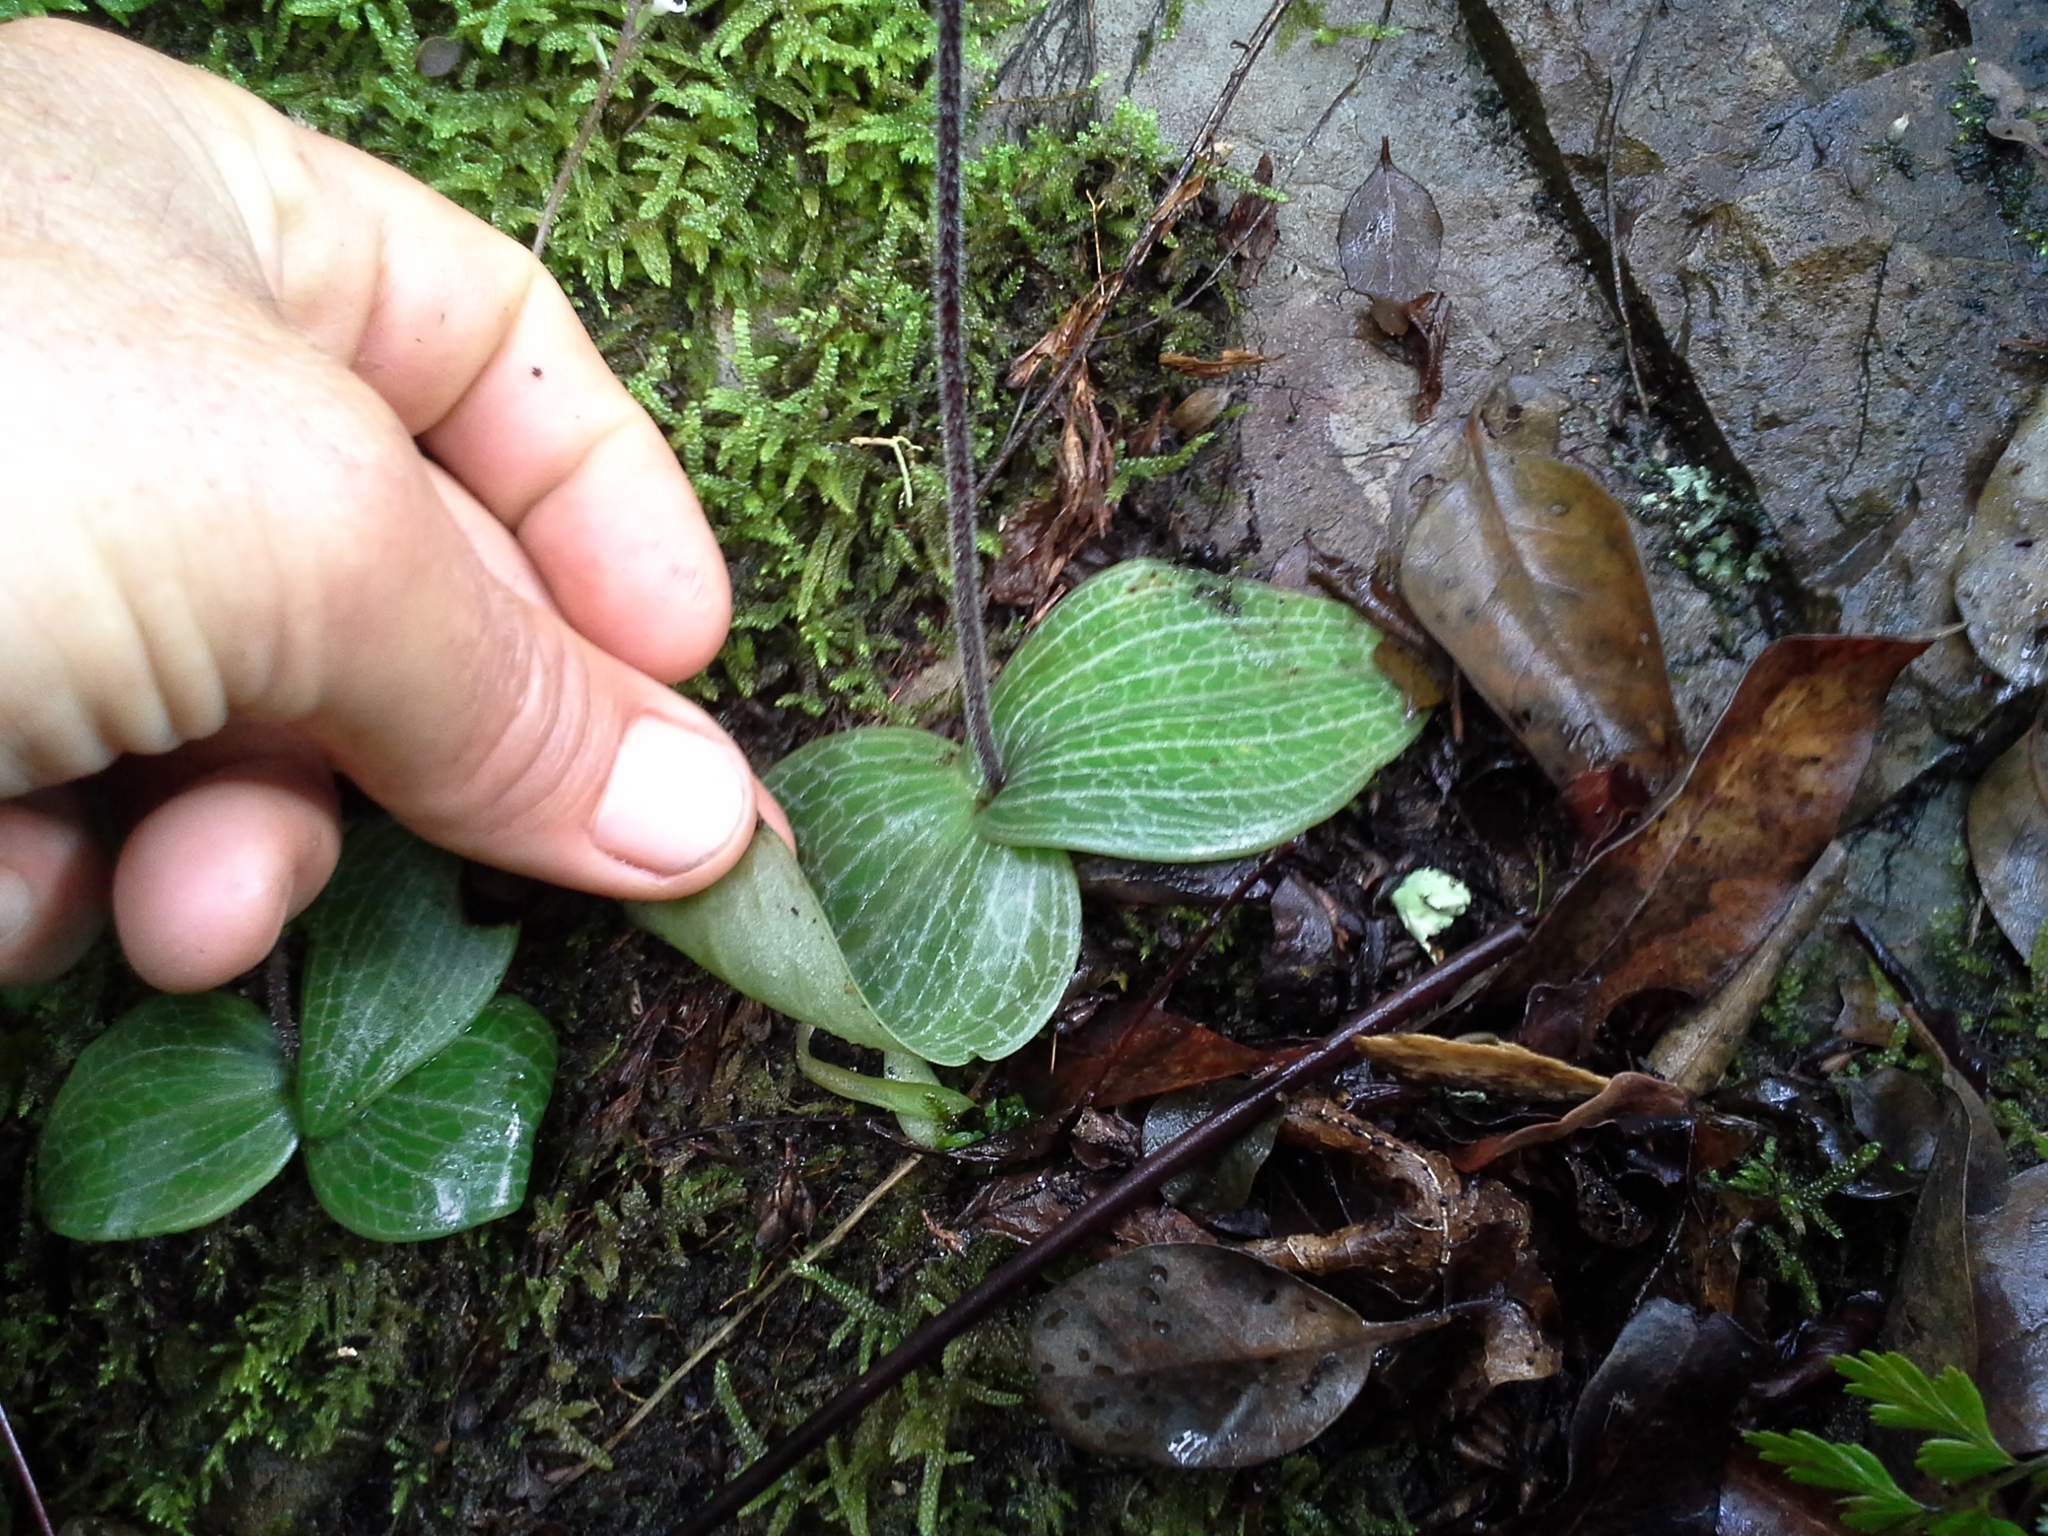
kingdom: Plantae
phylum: Tracheophyta
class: Liliopsida
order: Asparagales
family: Orchidaceae
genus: Holothrix
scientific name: Holothrix orthoceras
